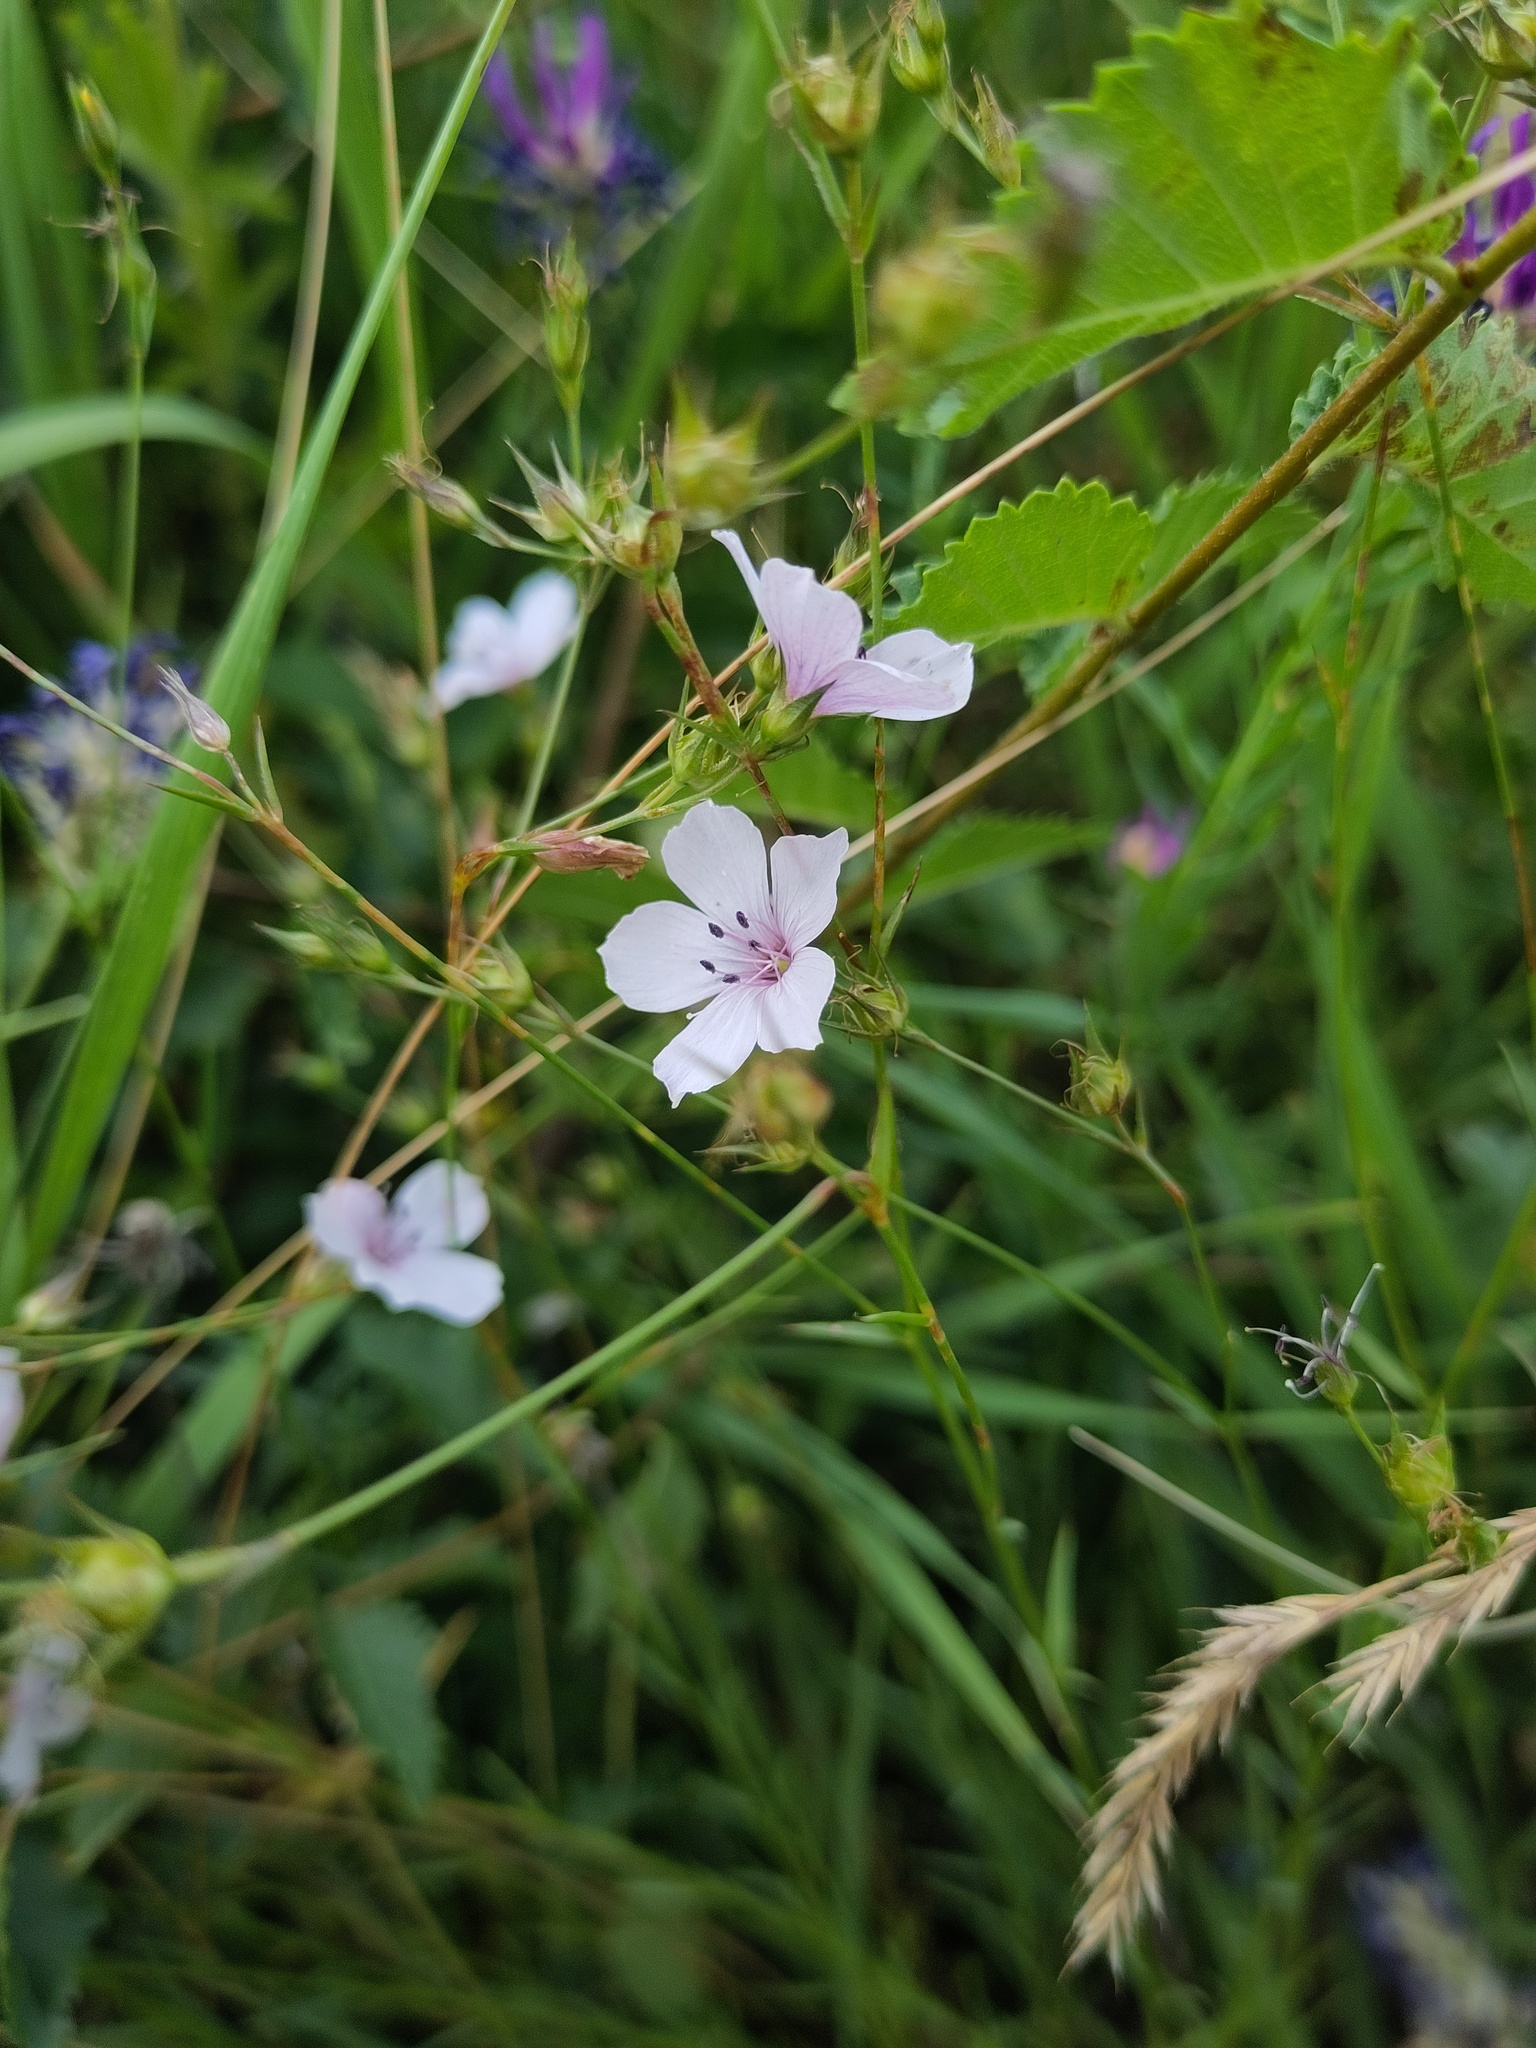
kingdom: Plantae
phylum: Tracheophyta
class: Magnoliopsida
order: Malpighiales
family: Linaceae
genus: Linum
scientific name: Linum tenuifolium
